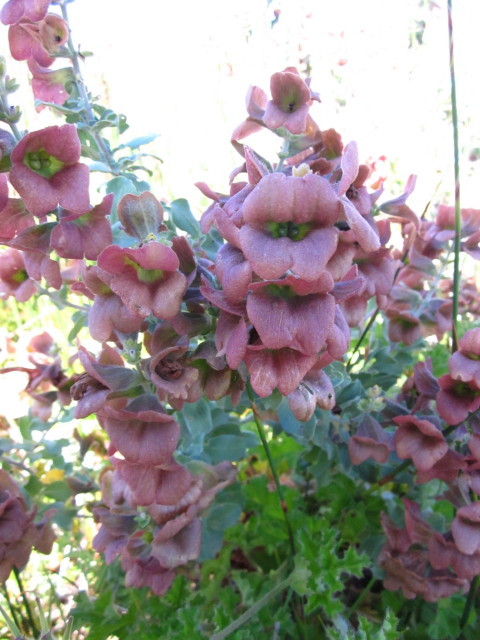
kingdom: Plantae
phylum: Tracheophyta
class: Magnoliopsida
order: Lamiales
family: Lamiaceae
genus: Salvia
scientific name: Salvia aurea
